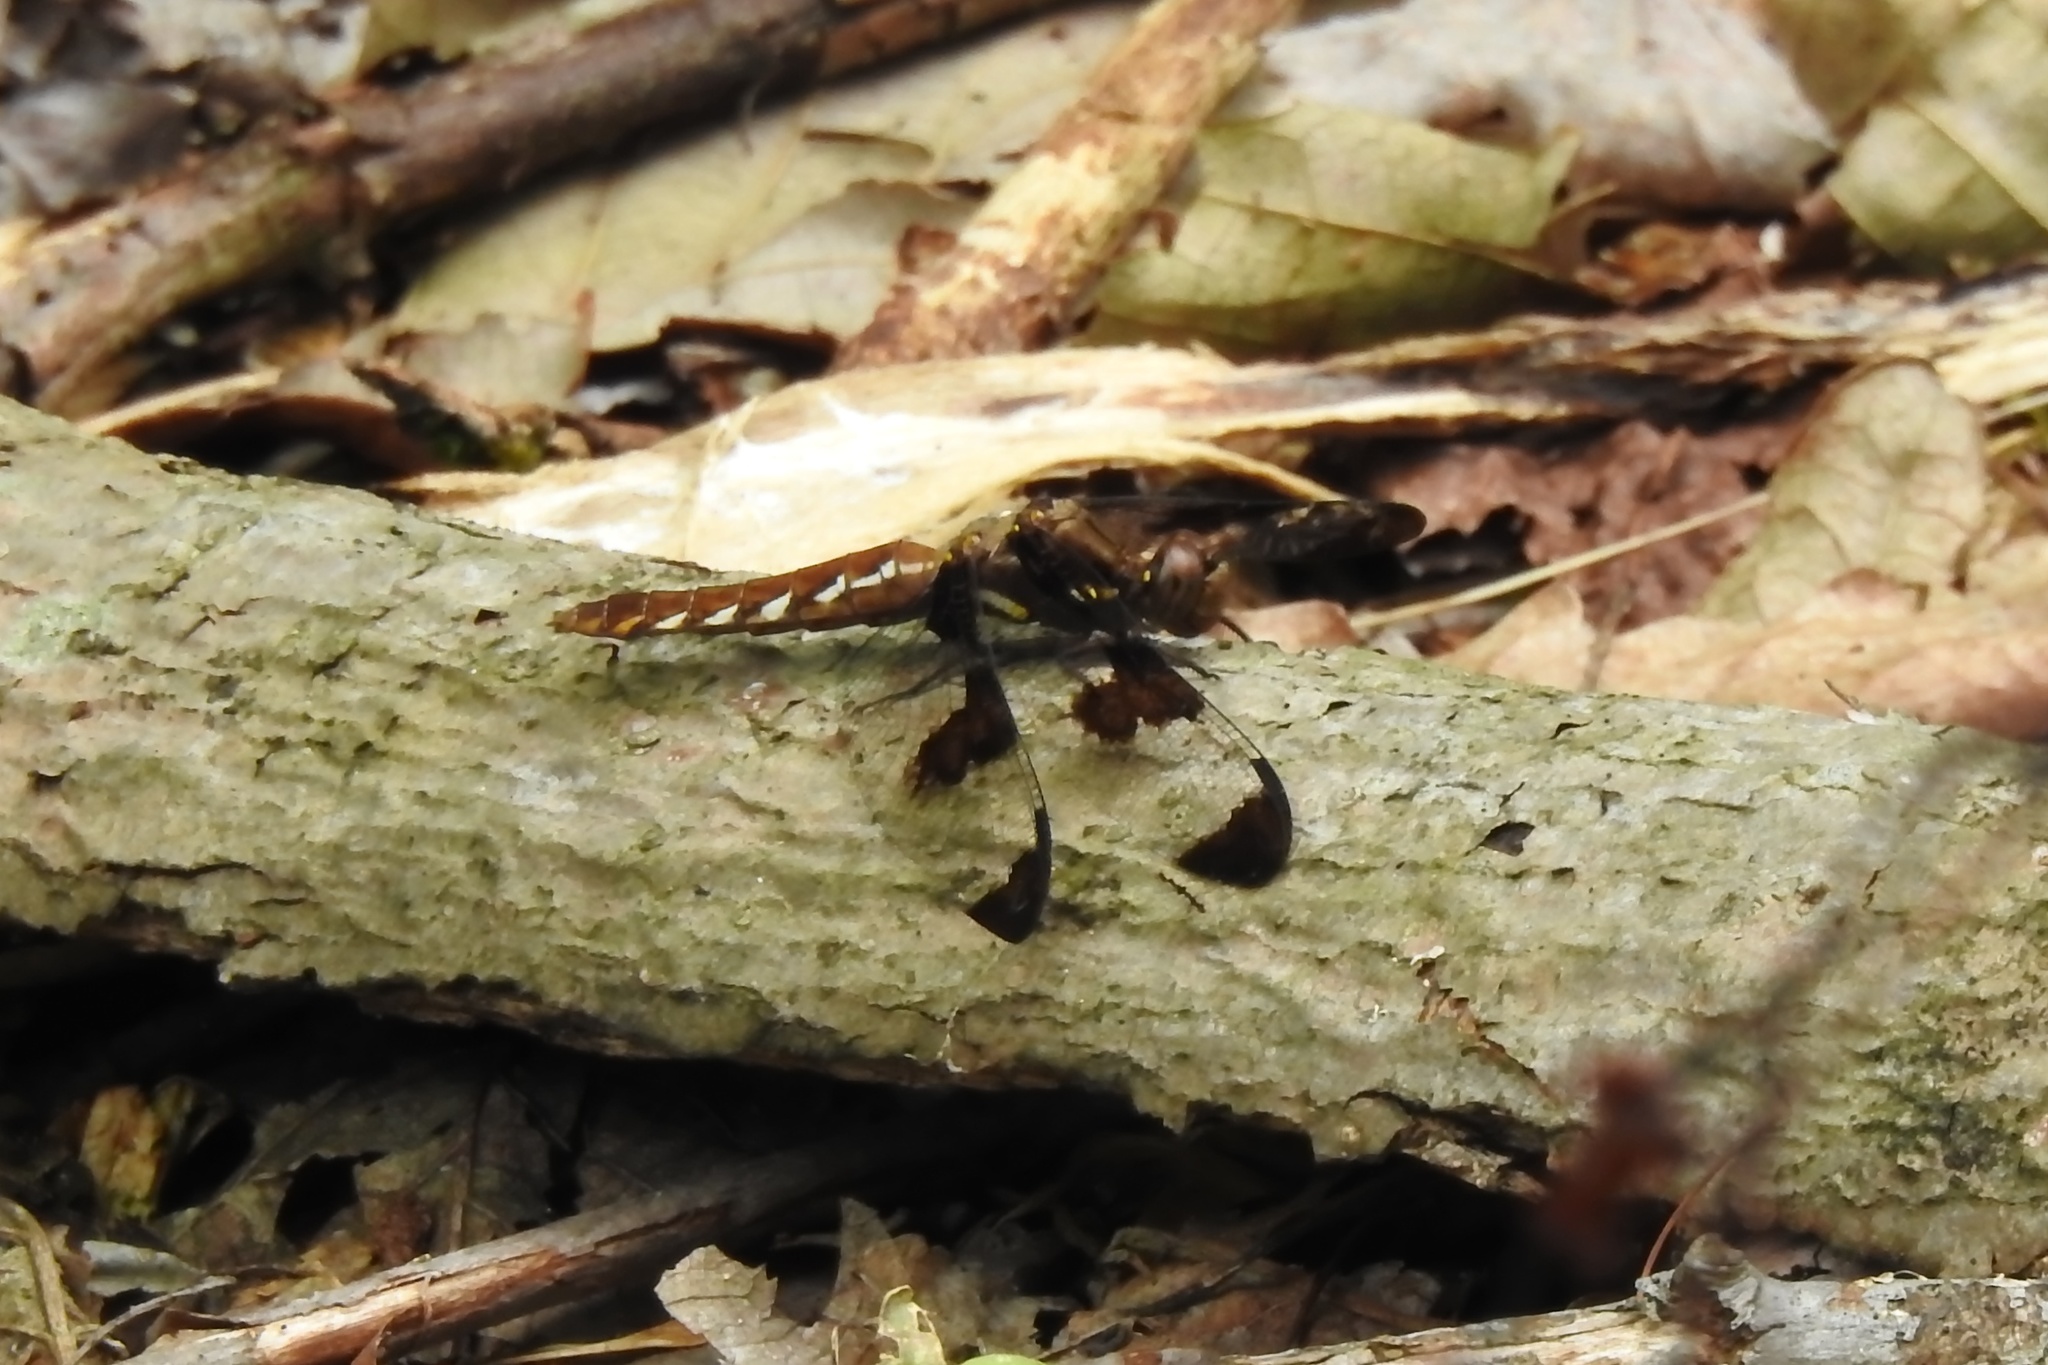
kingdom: Animalia
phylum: Arthropoda
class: Insecta
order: Odonata
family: Libellulidae
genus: Plathemis
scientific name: Plathemis lydia
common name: Common whitetail
